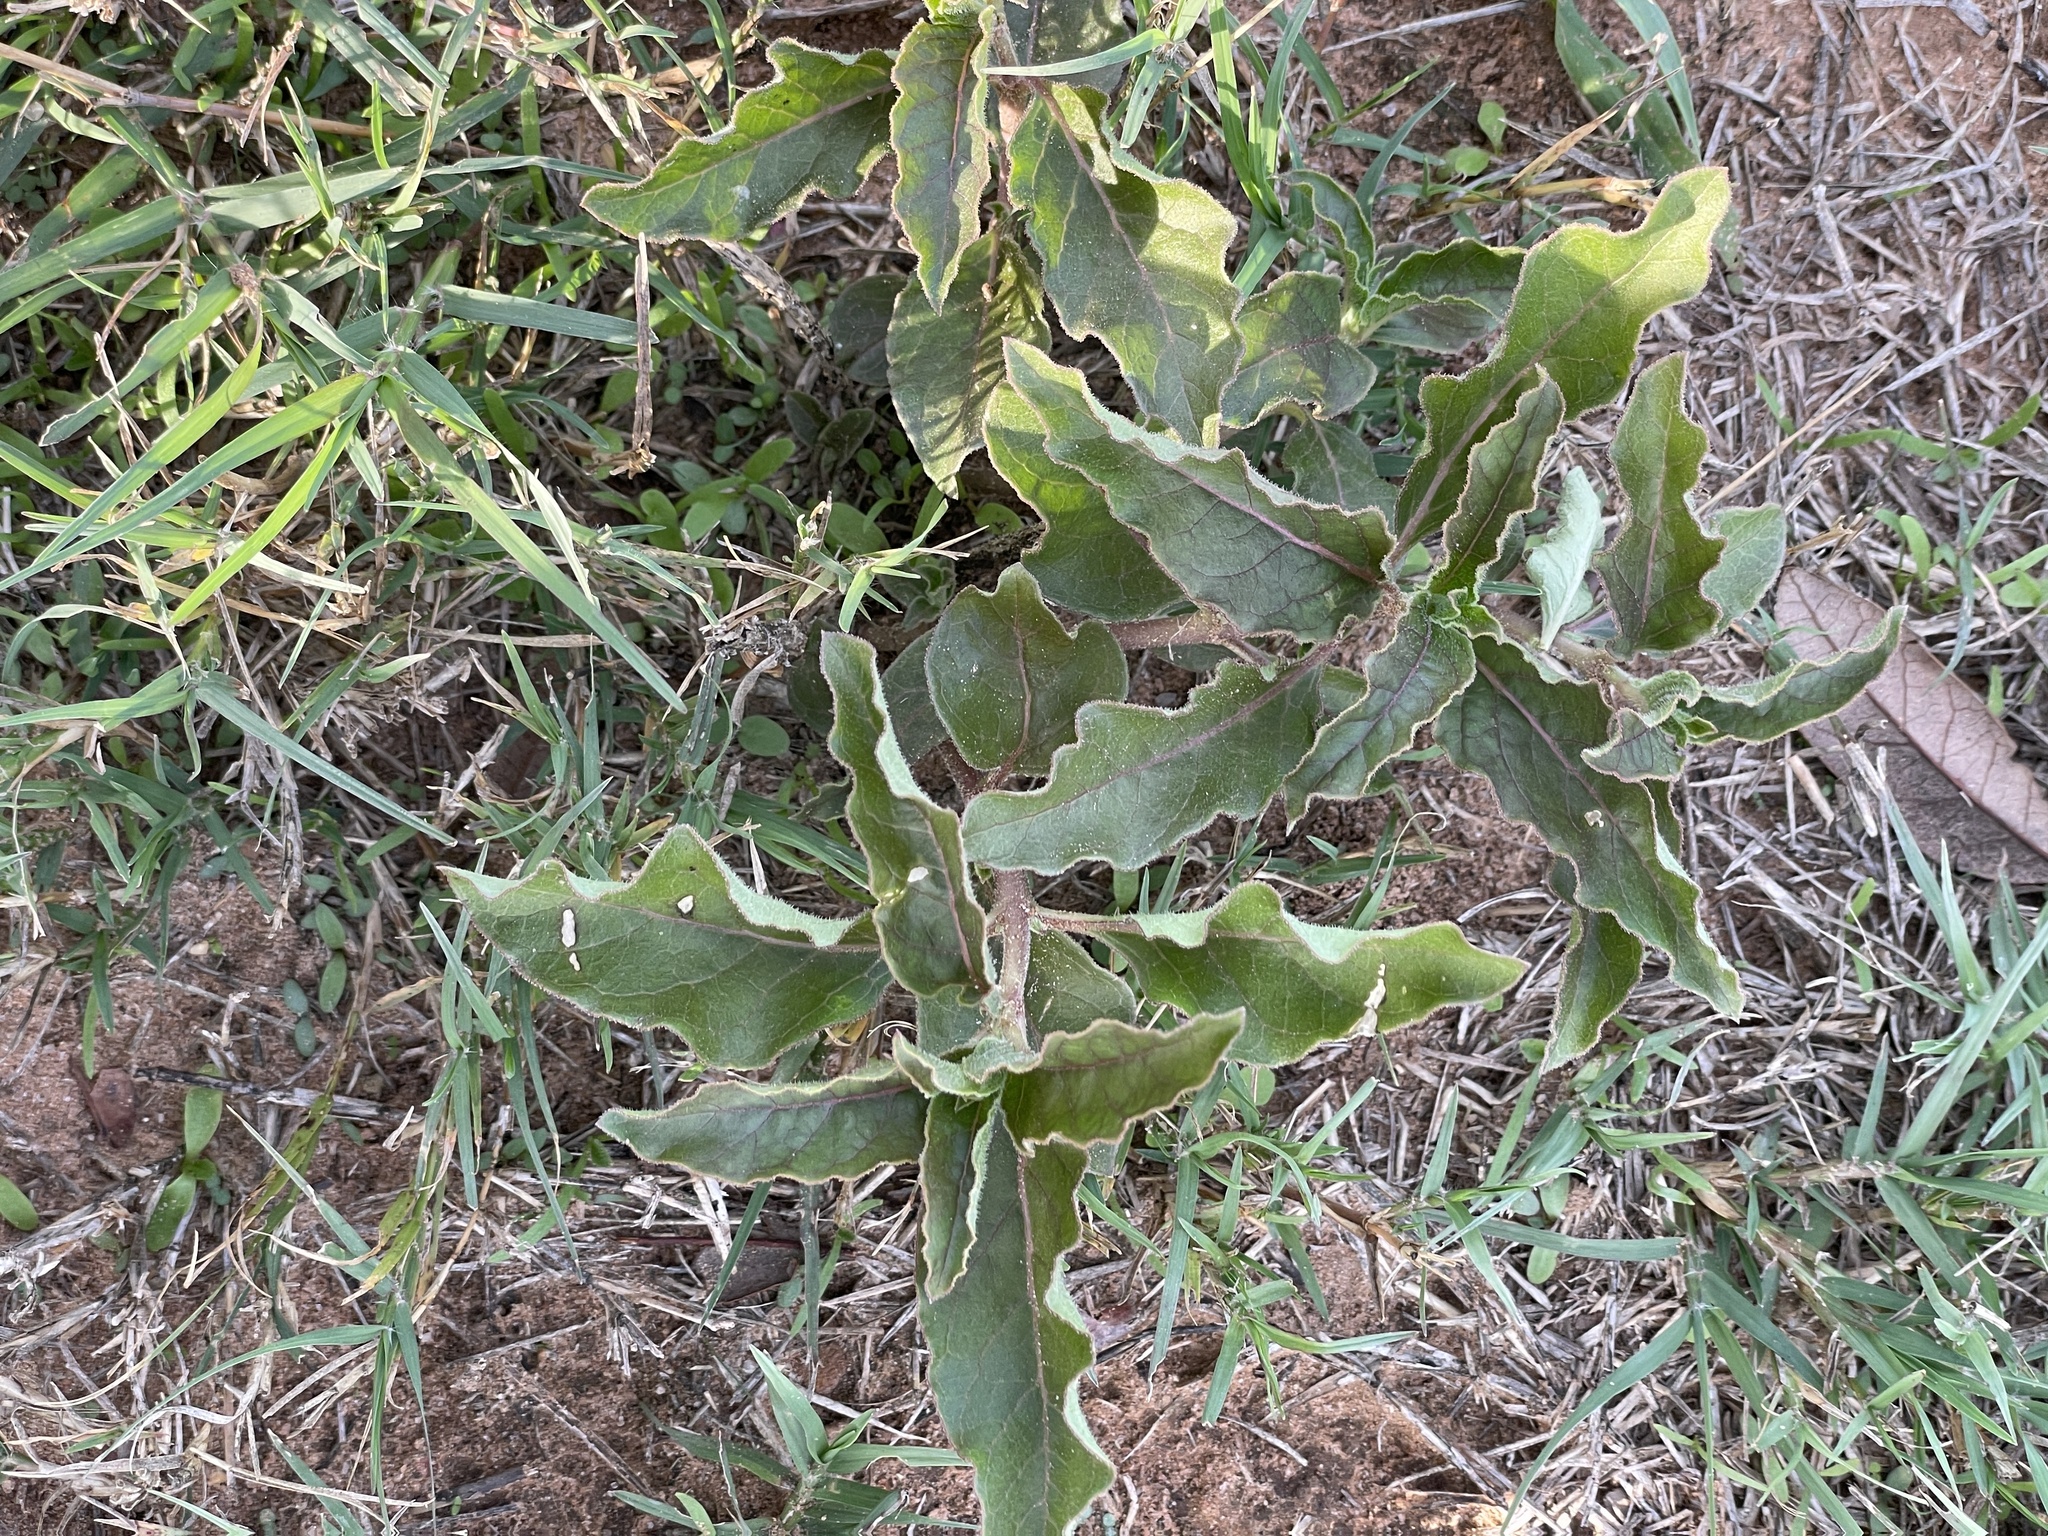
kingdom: Plantae
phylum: Tracheophyta
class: Magnoliopsida
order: Gentianales
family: Apocynaceae
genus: Asclepias
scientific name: Asclepias oenotheroides
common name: Zizotes milkweed
